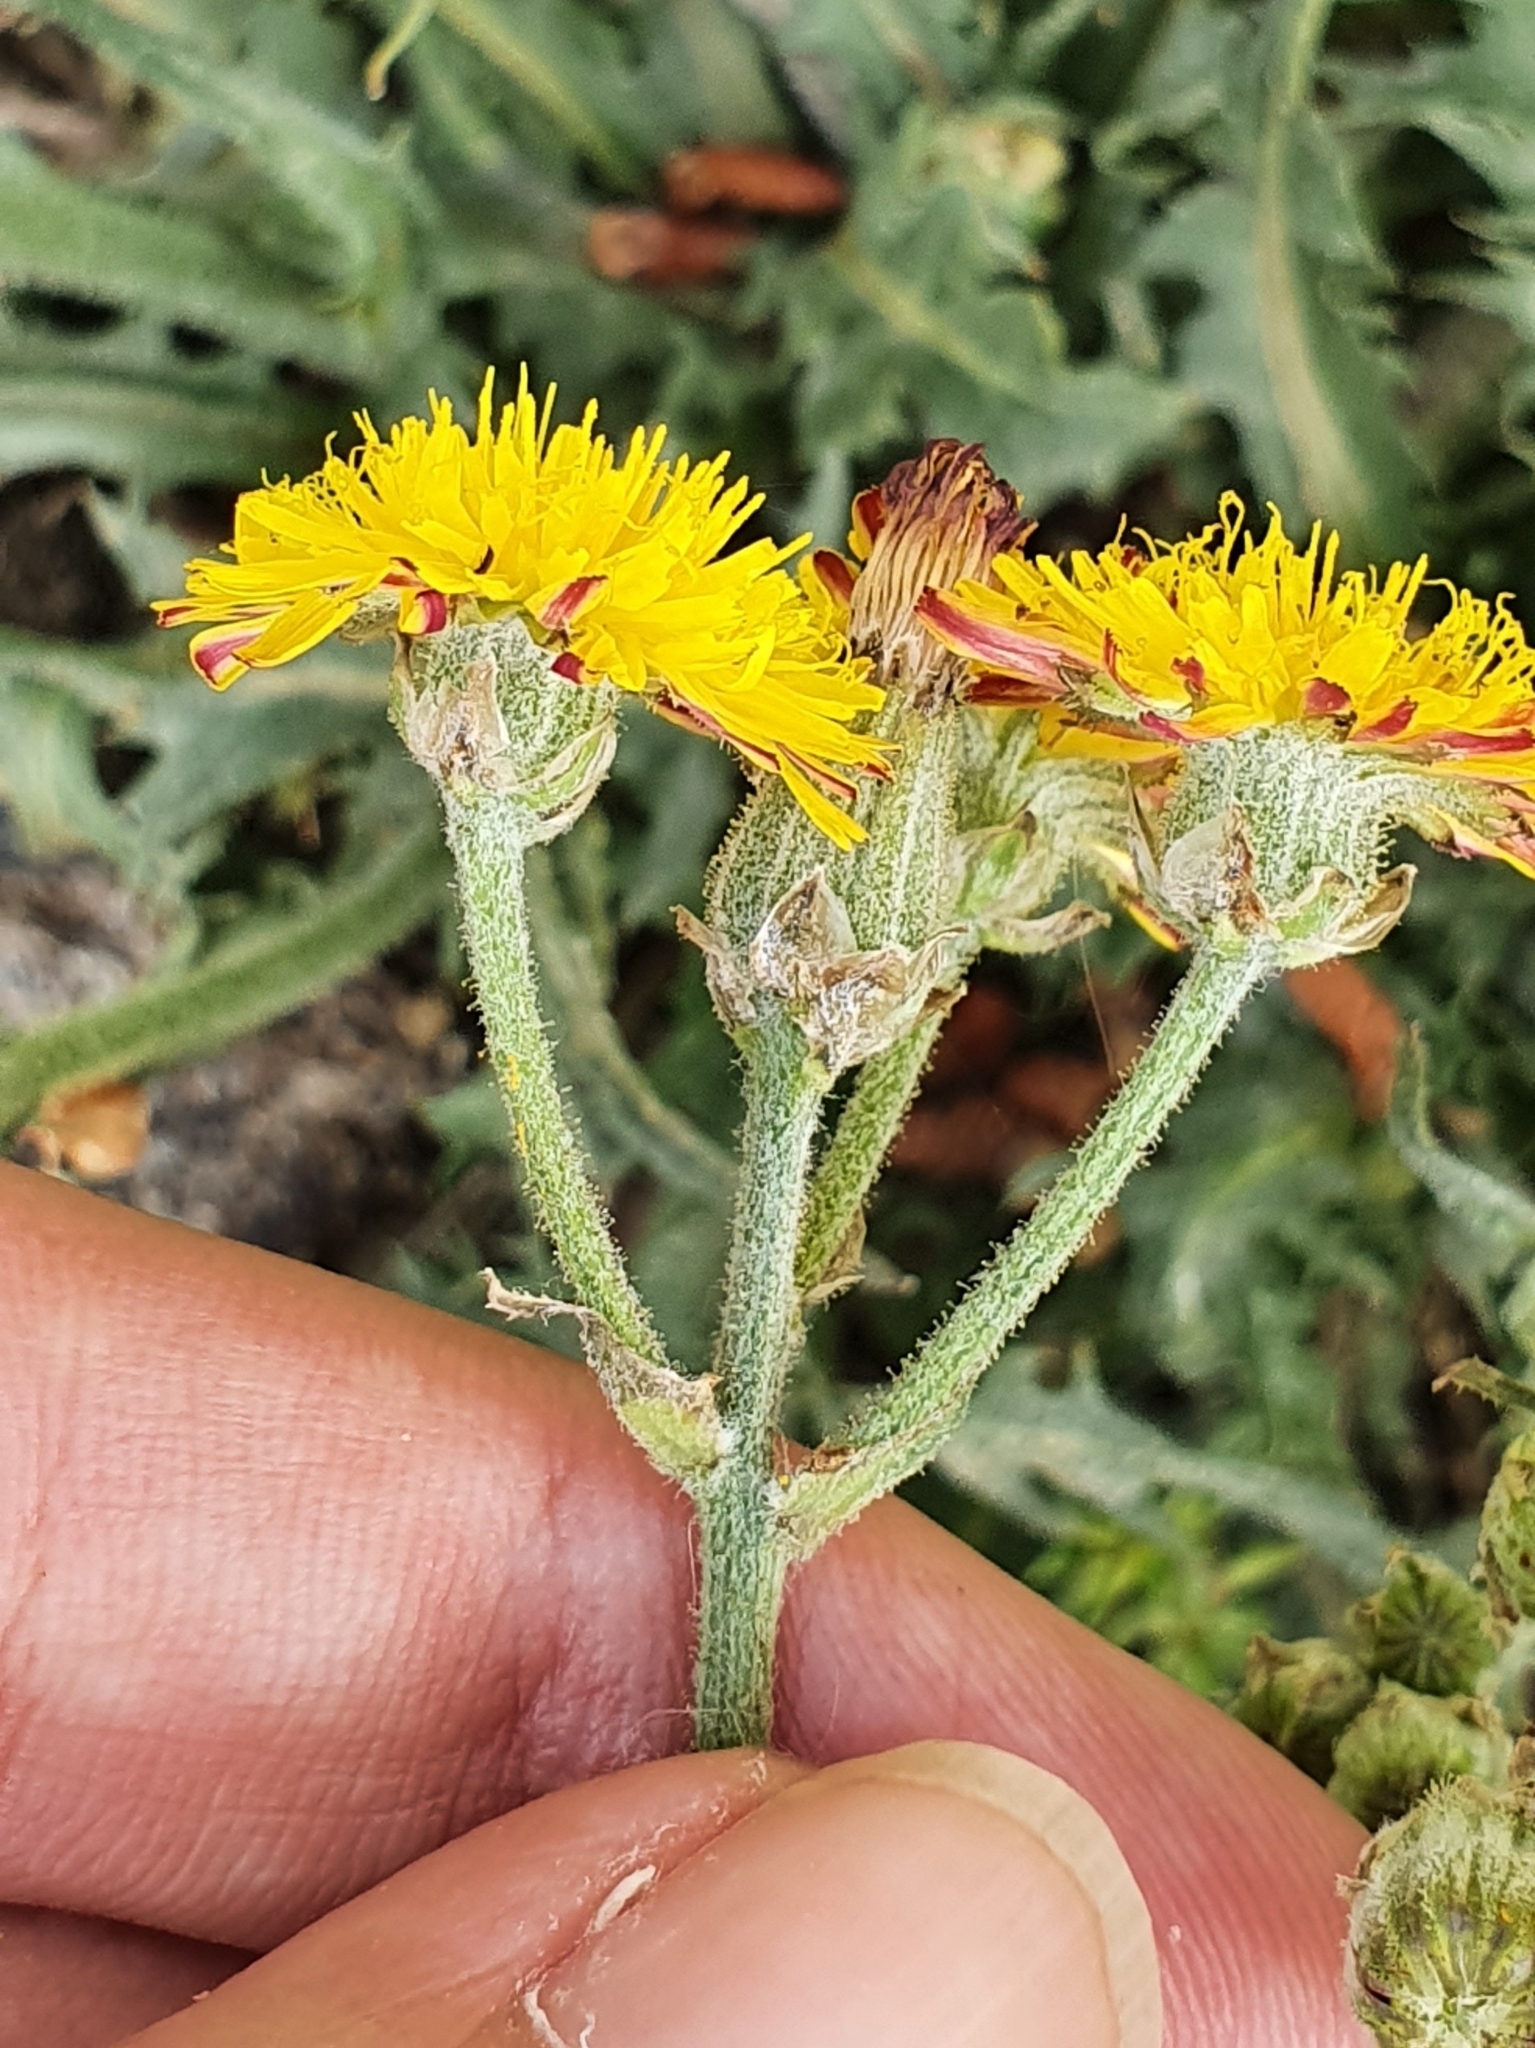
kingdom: Plantae
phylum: Tracheophyta
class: Magnoliopsida
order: Asterales
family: Asteraceae
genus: Crepis
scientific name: Crepis vesicaria
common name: Beaked hawksbeard
